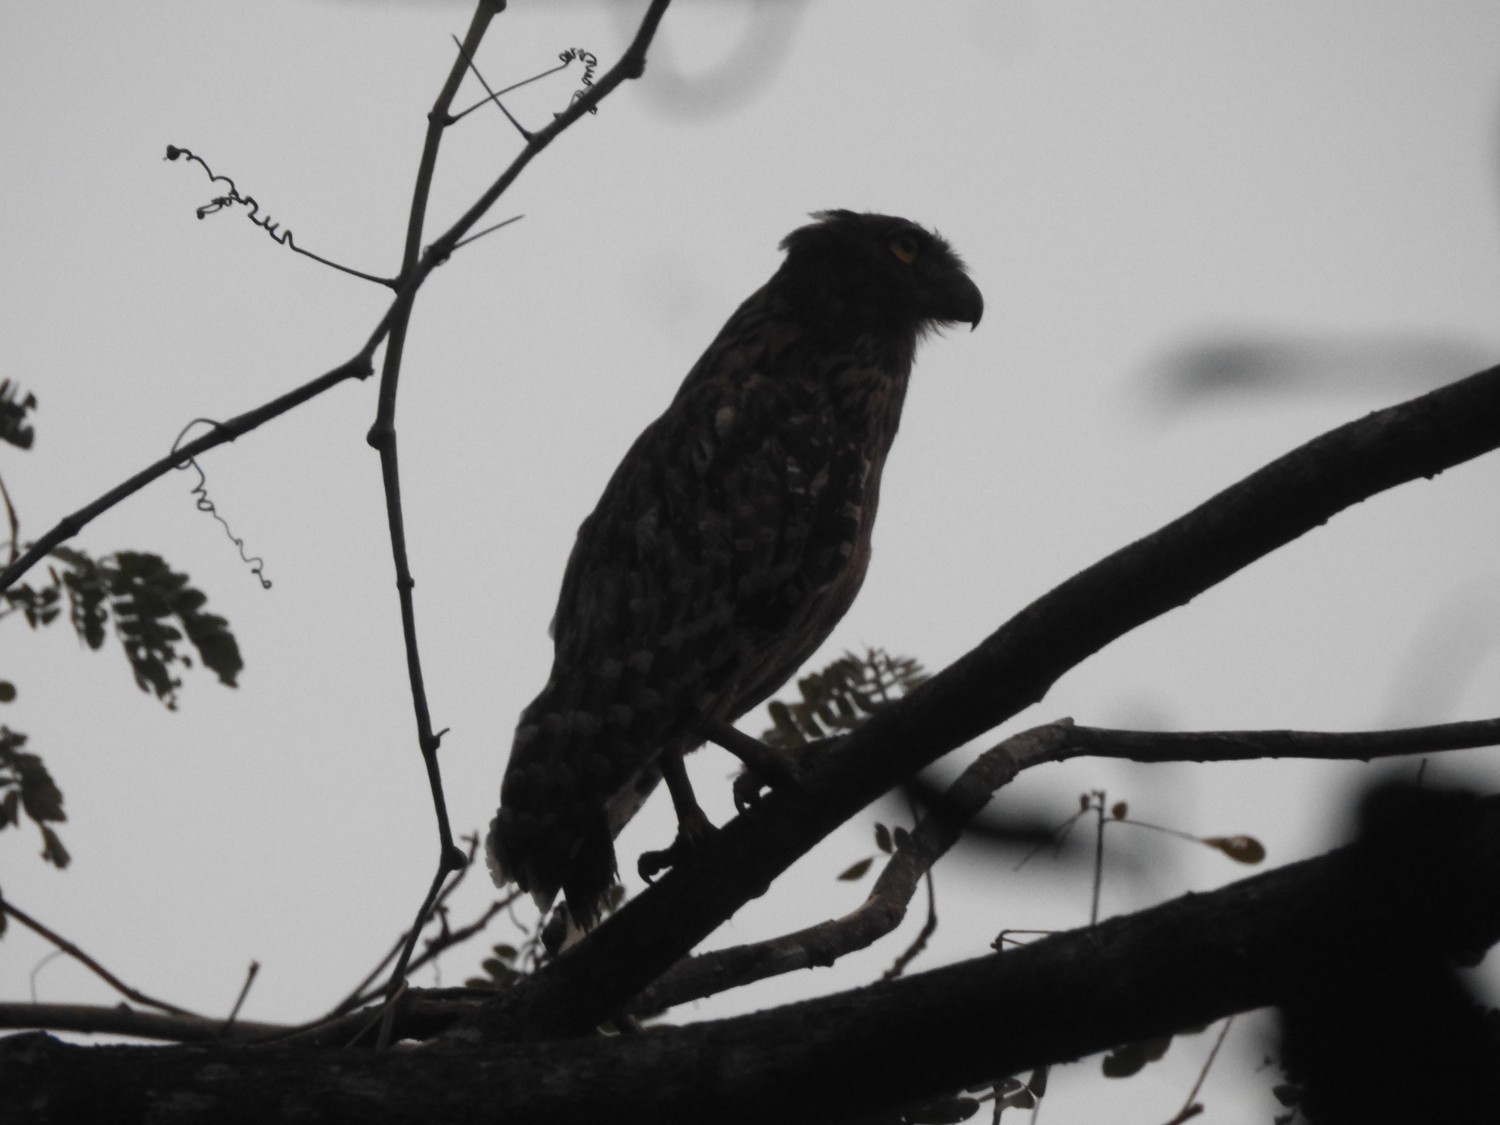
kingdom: Animalia
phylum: Chordata
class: Aves
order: Strigiformes
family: Strigidae
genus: Ketupa
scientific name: Ketupa zeylonensis
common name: Brown fish owl
